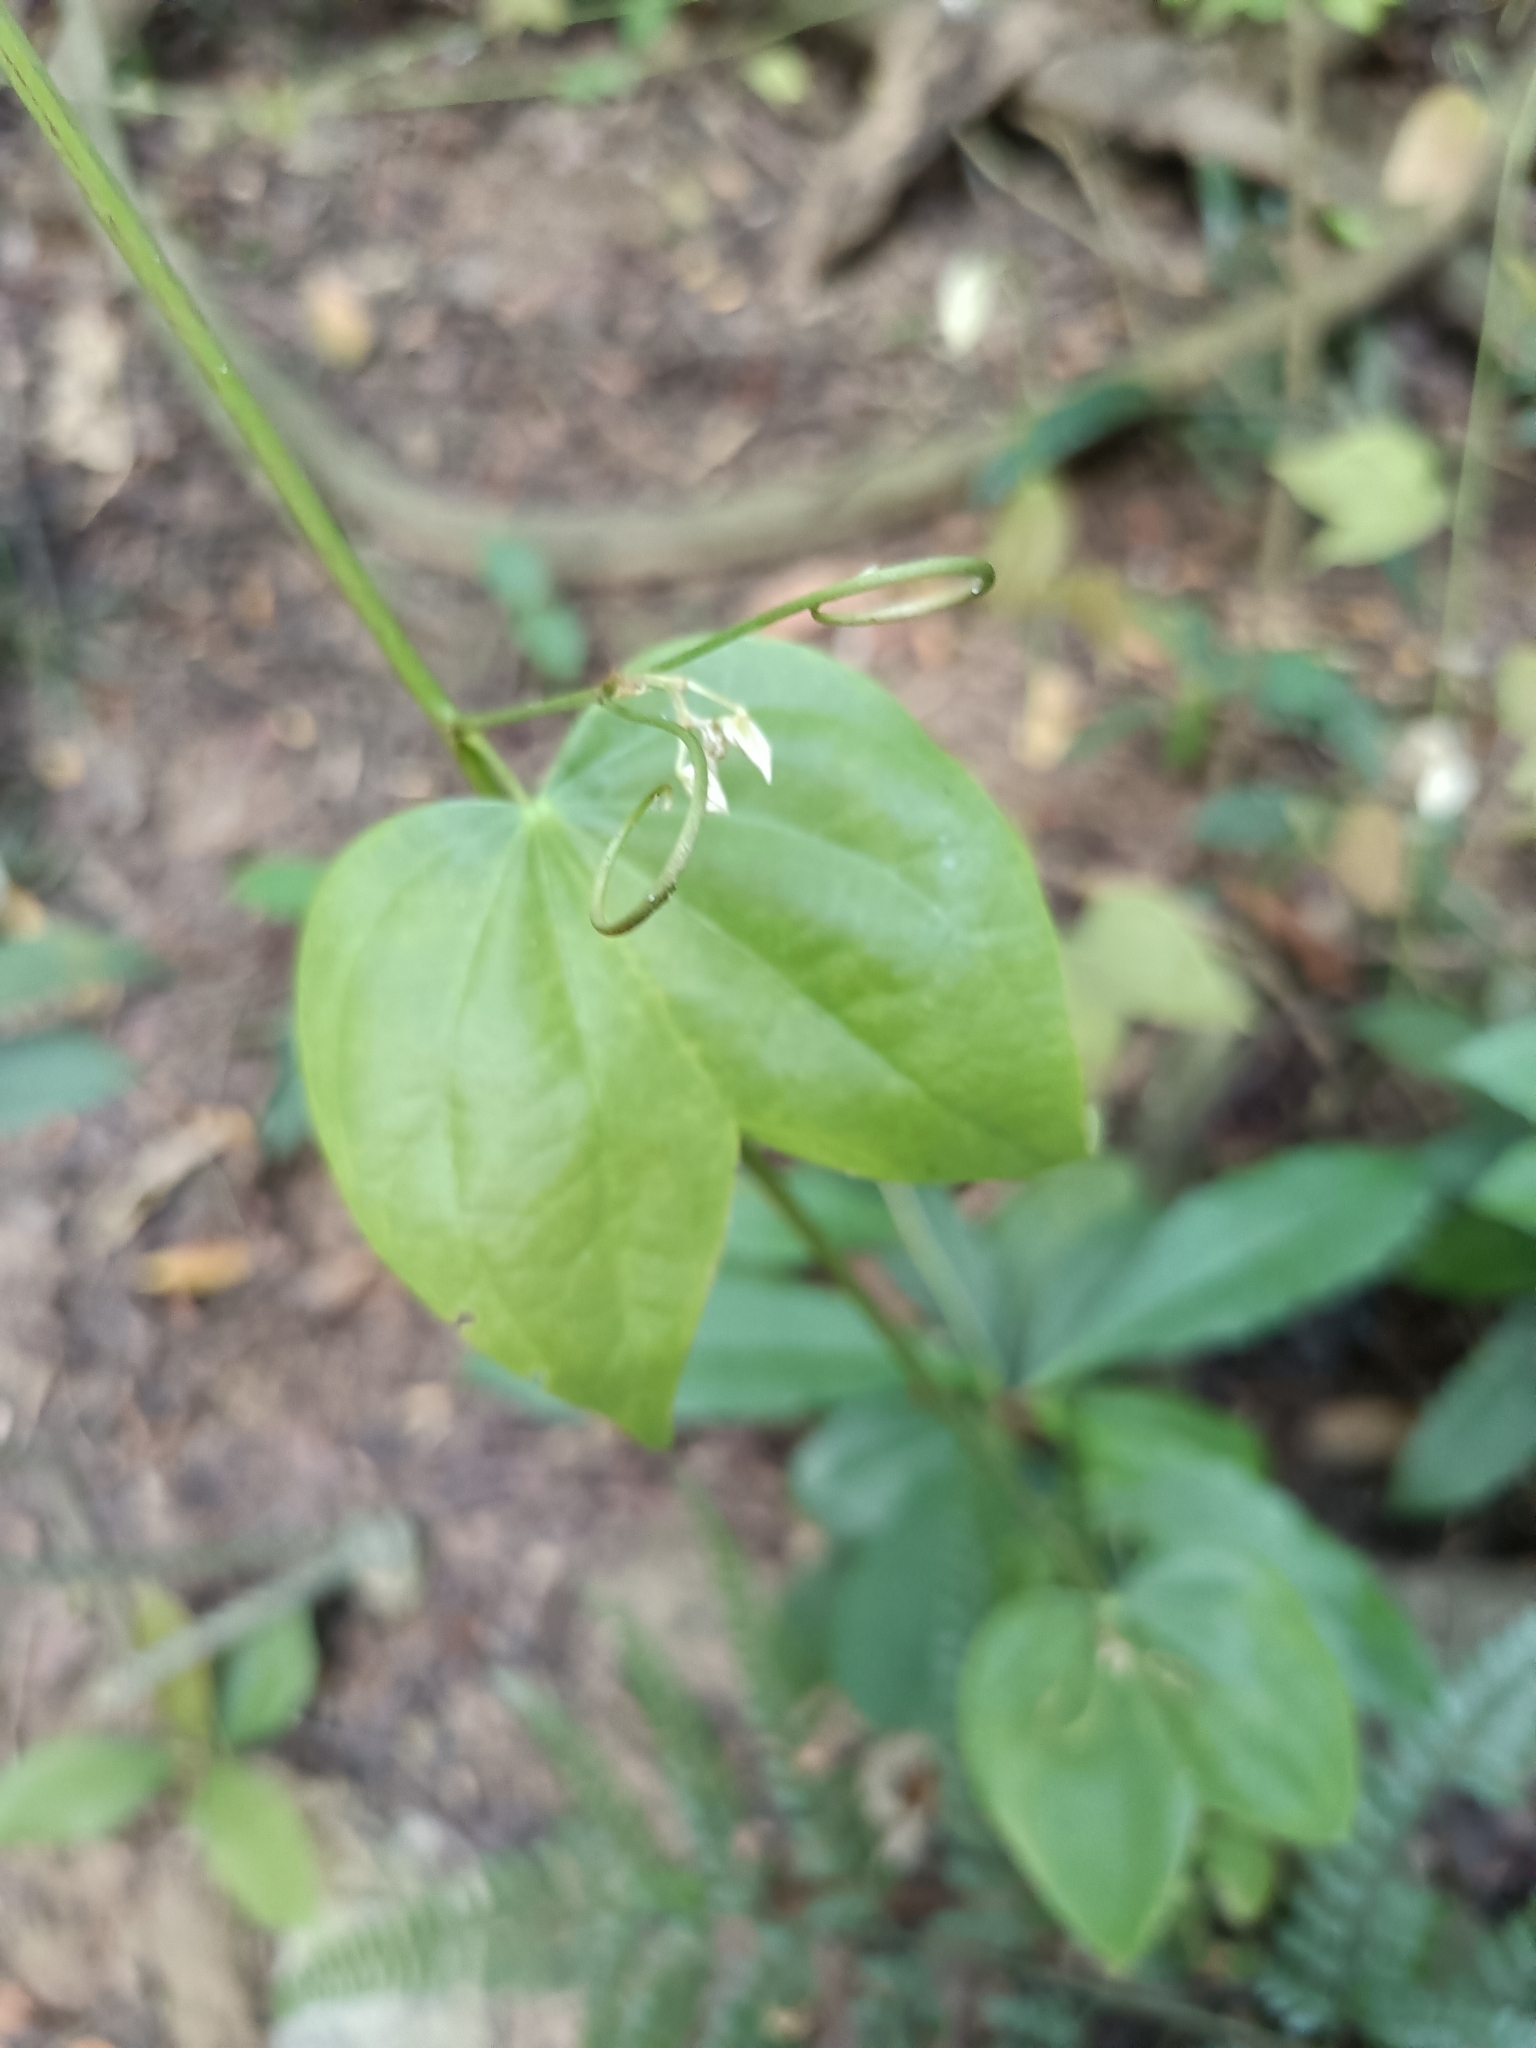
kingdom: Plantae
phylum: Tracheophyta
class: Magnoliopsida
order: Fabales
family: Fabaceae
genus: Phanera
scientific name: Phanera championii
